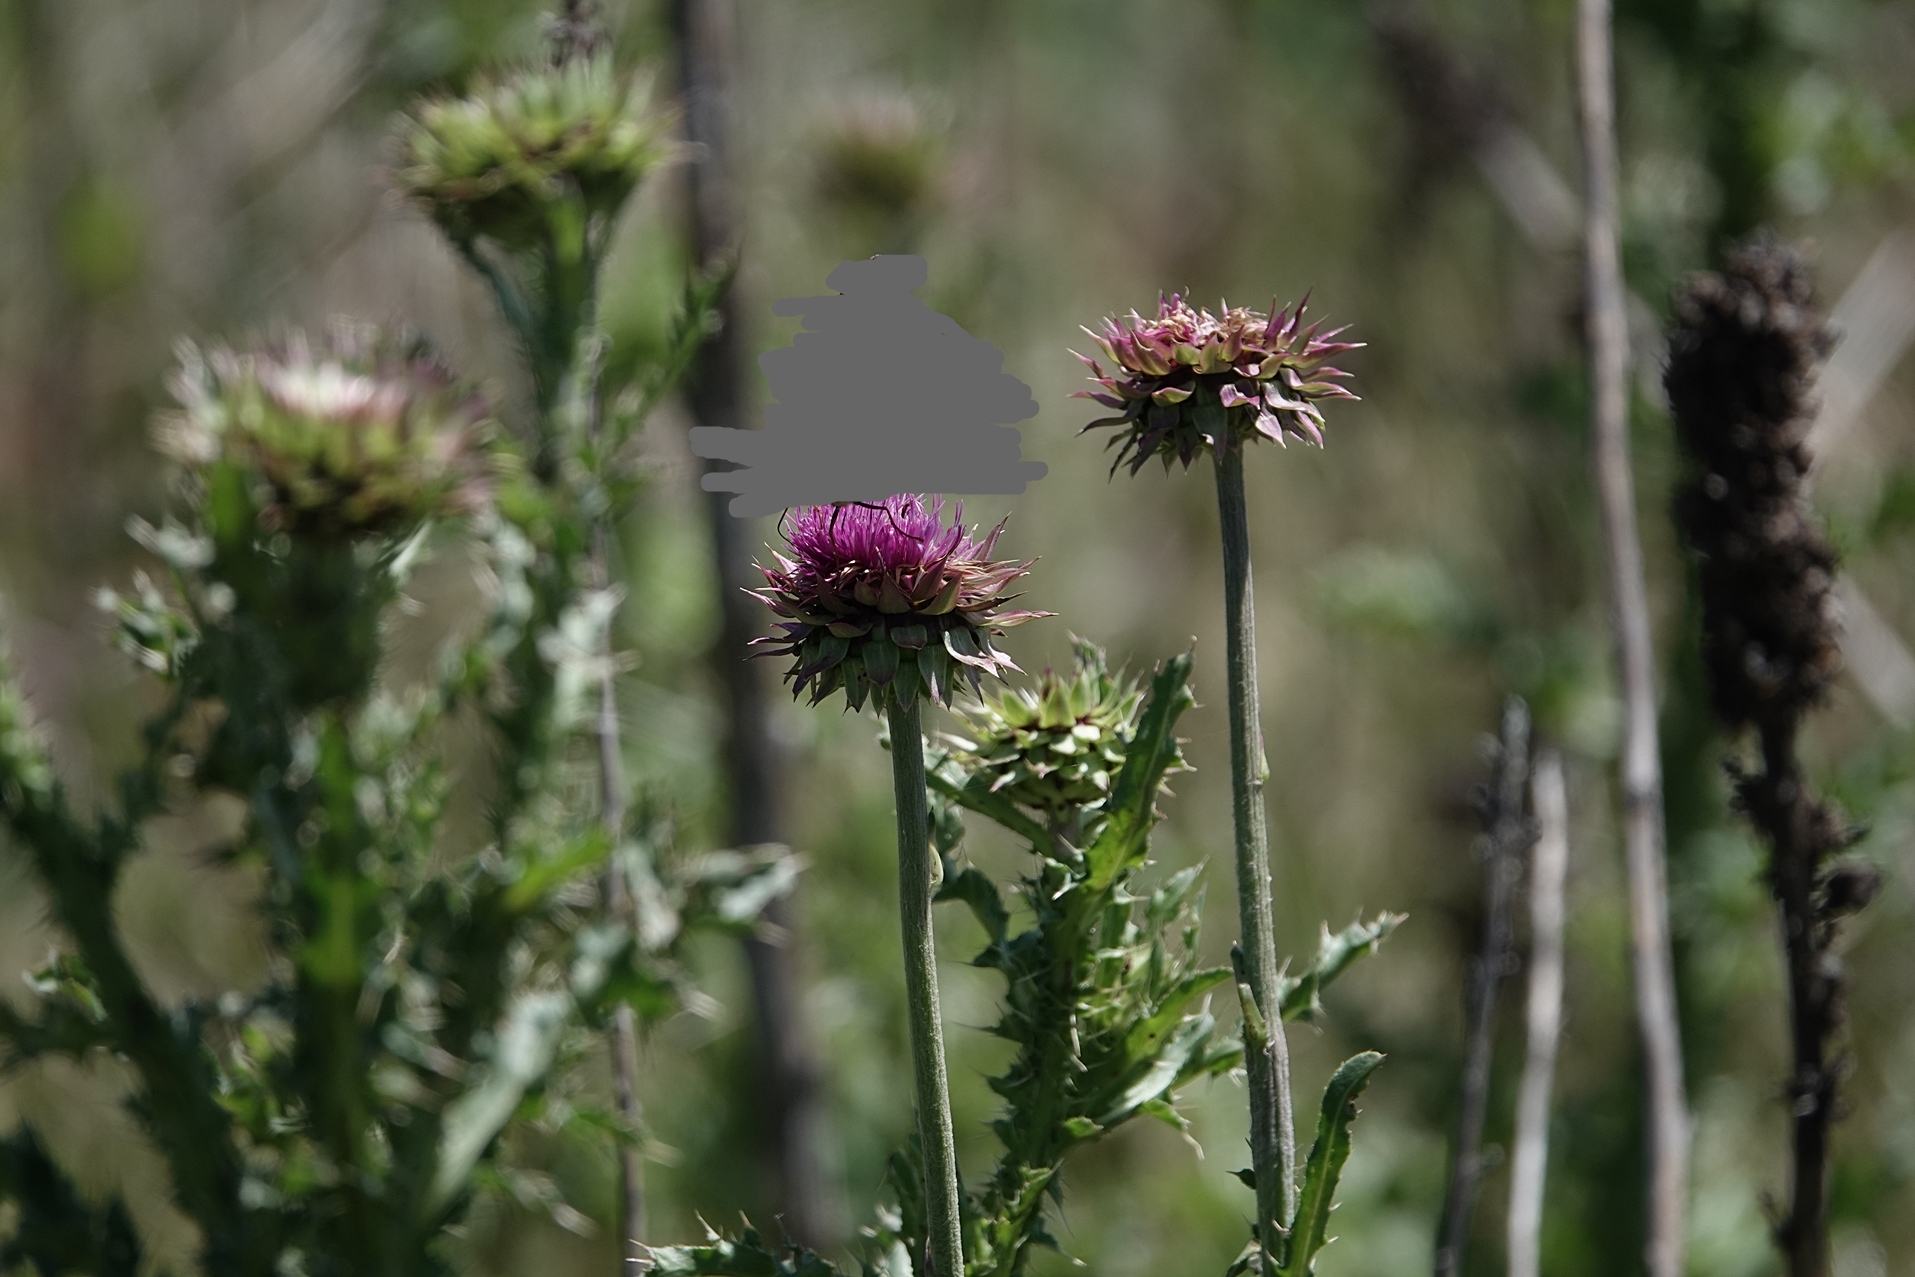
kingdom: Plantae
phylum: Tracheophyta
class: Magnoliopsida
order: Asterales
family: Asteraceae
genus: Carduus
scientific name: Carduus nutans
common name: Musk thistle
